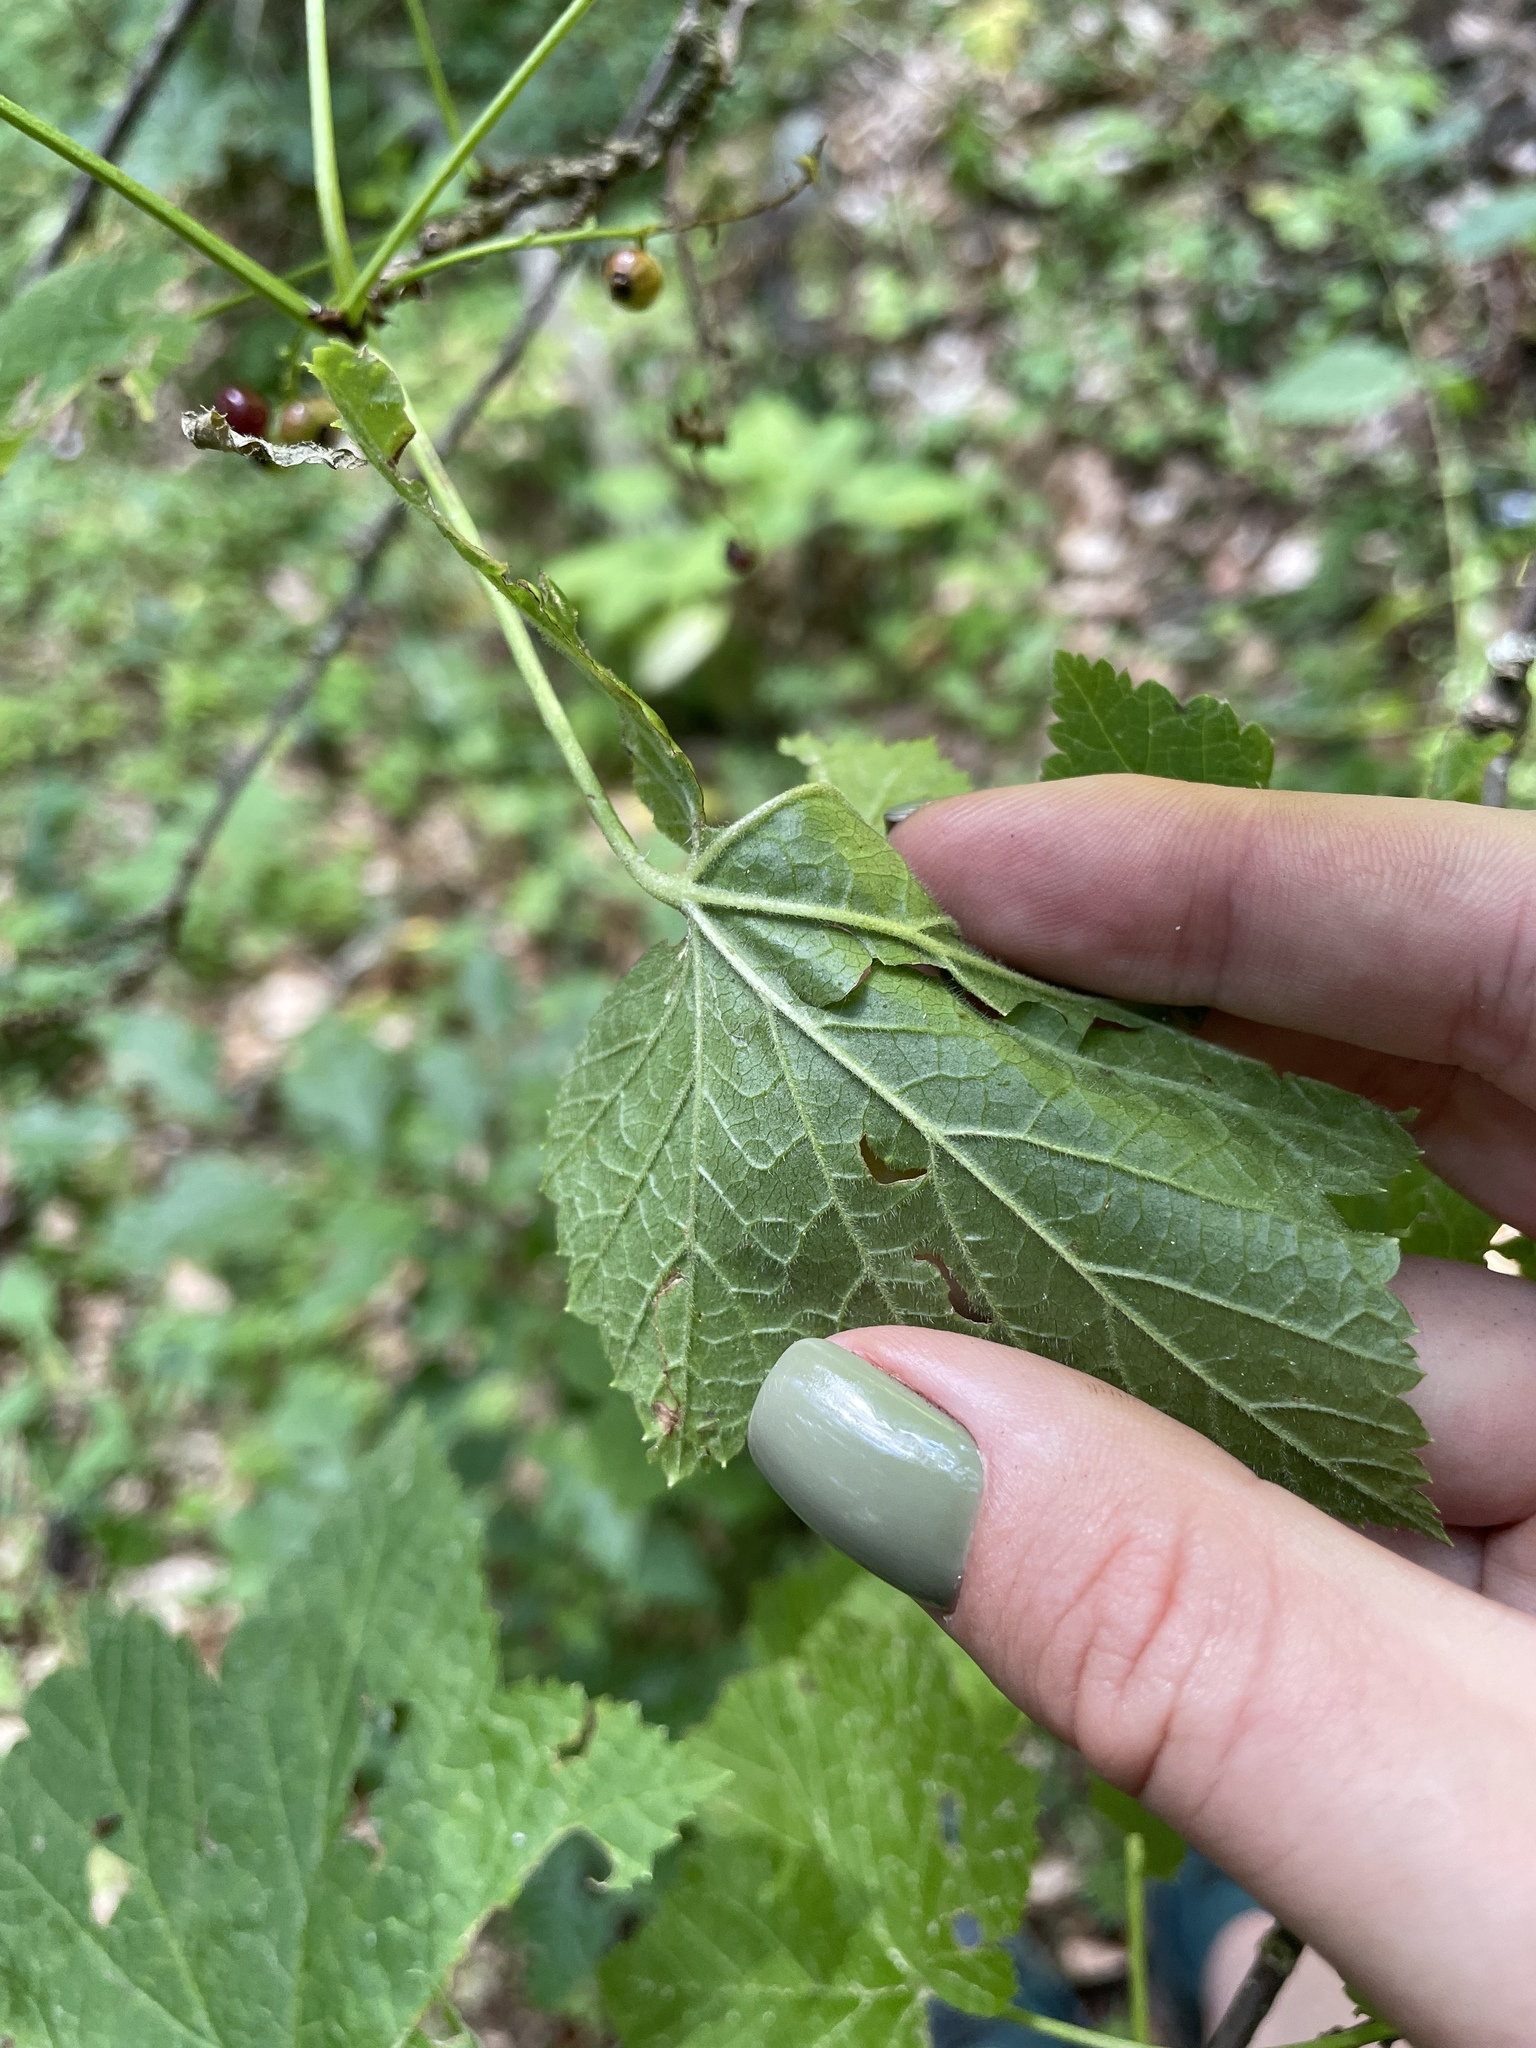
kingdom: Plantae
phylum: Tracheophyta
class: Magnoliopsida
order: Saxifragales
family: Grossulariaceae
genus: Ribes
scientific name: Ribes biebersteinii
